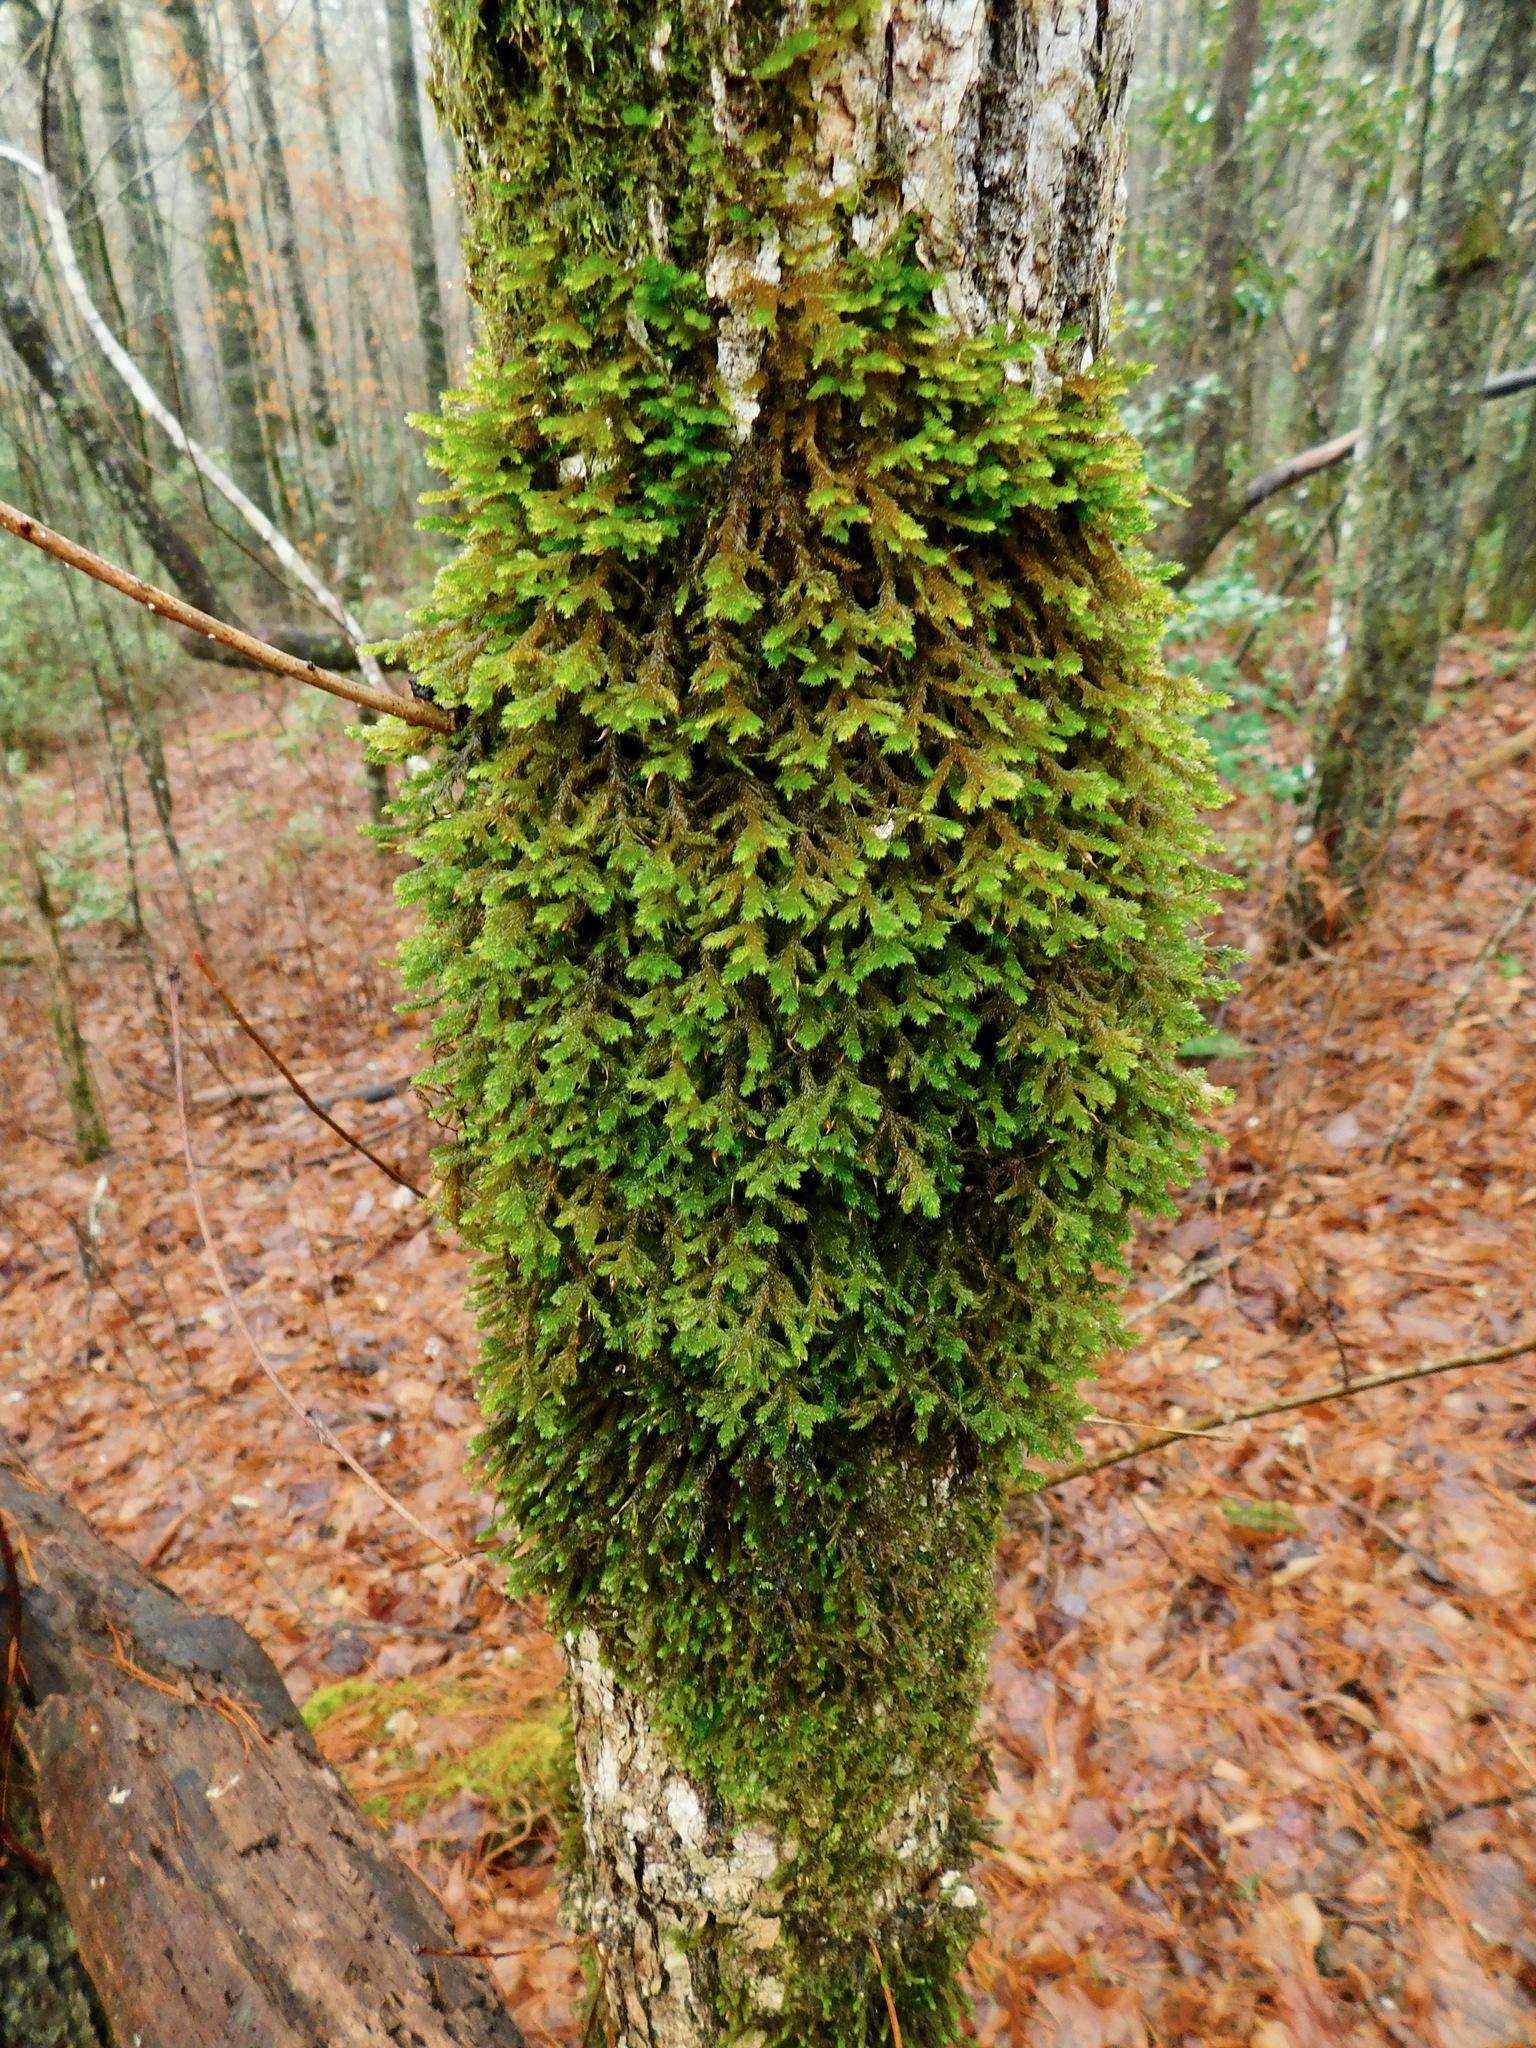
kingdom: Plantae
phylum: Bryophyta
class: Bryopsida
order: Hypnales
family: Neckeraceae
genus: Forsstroemia
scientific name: Forsstroemia trichomitria
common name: Fan moss
